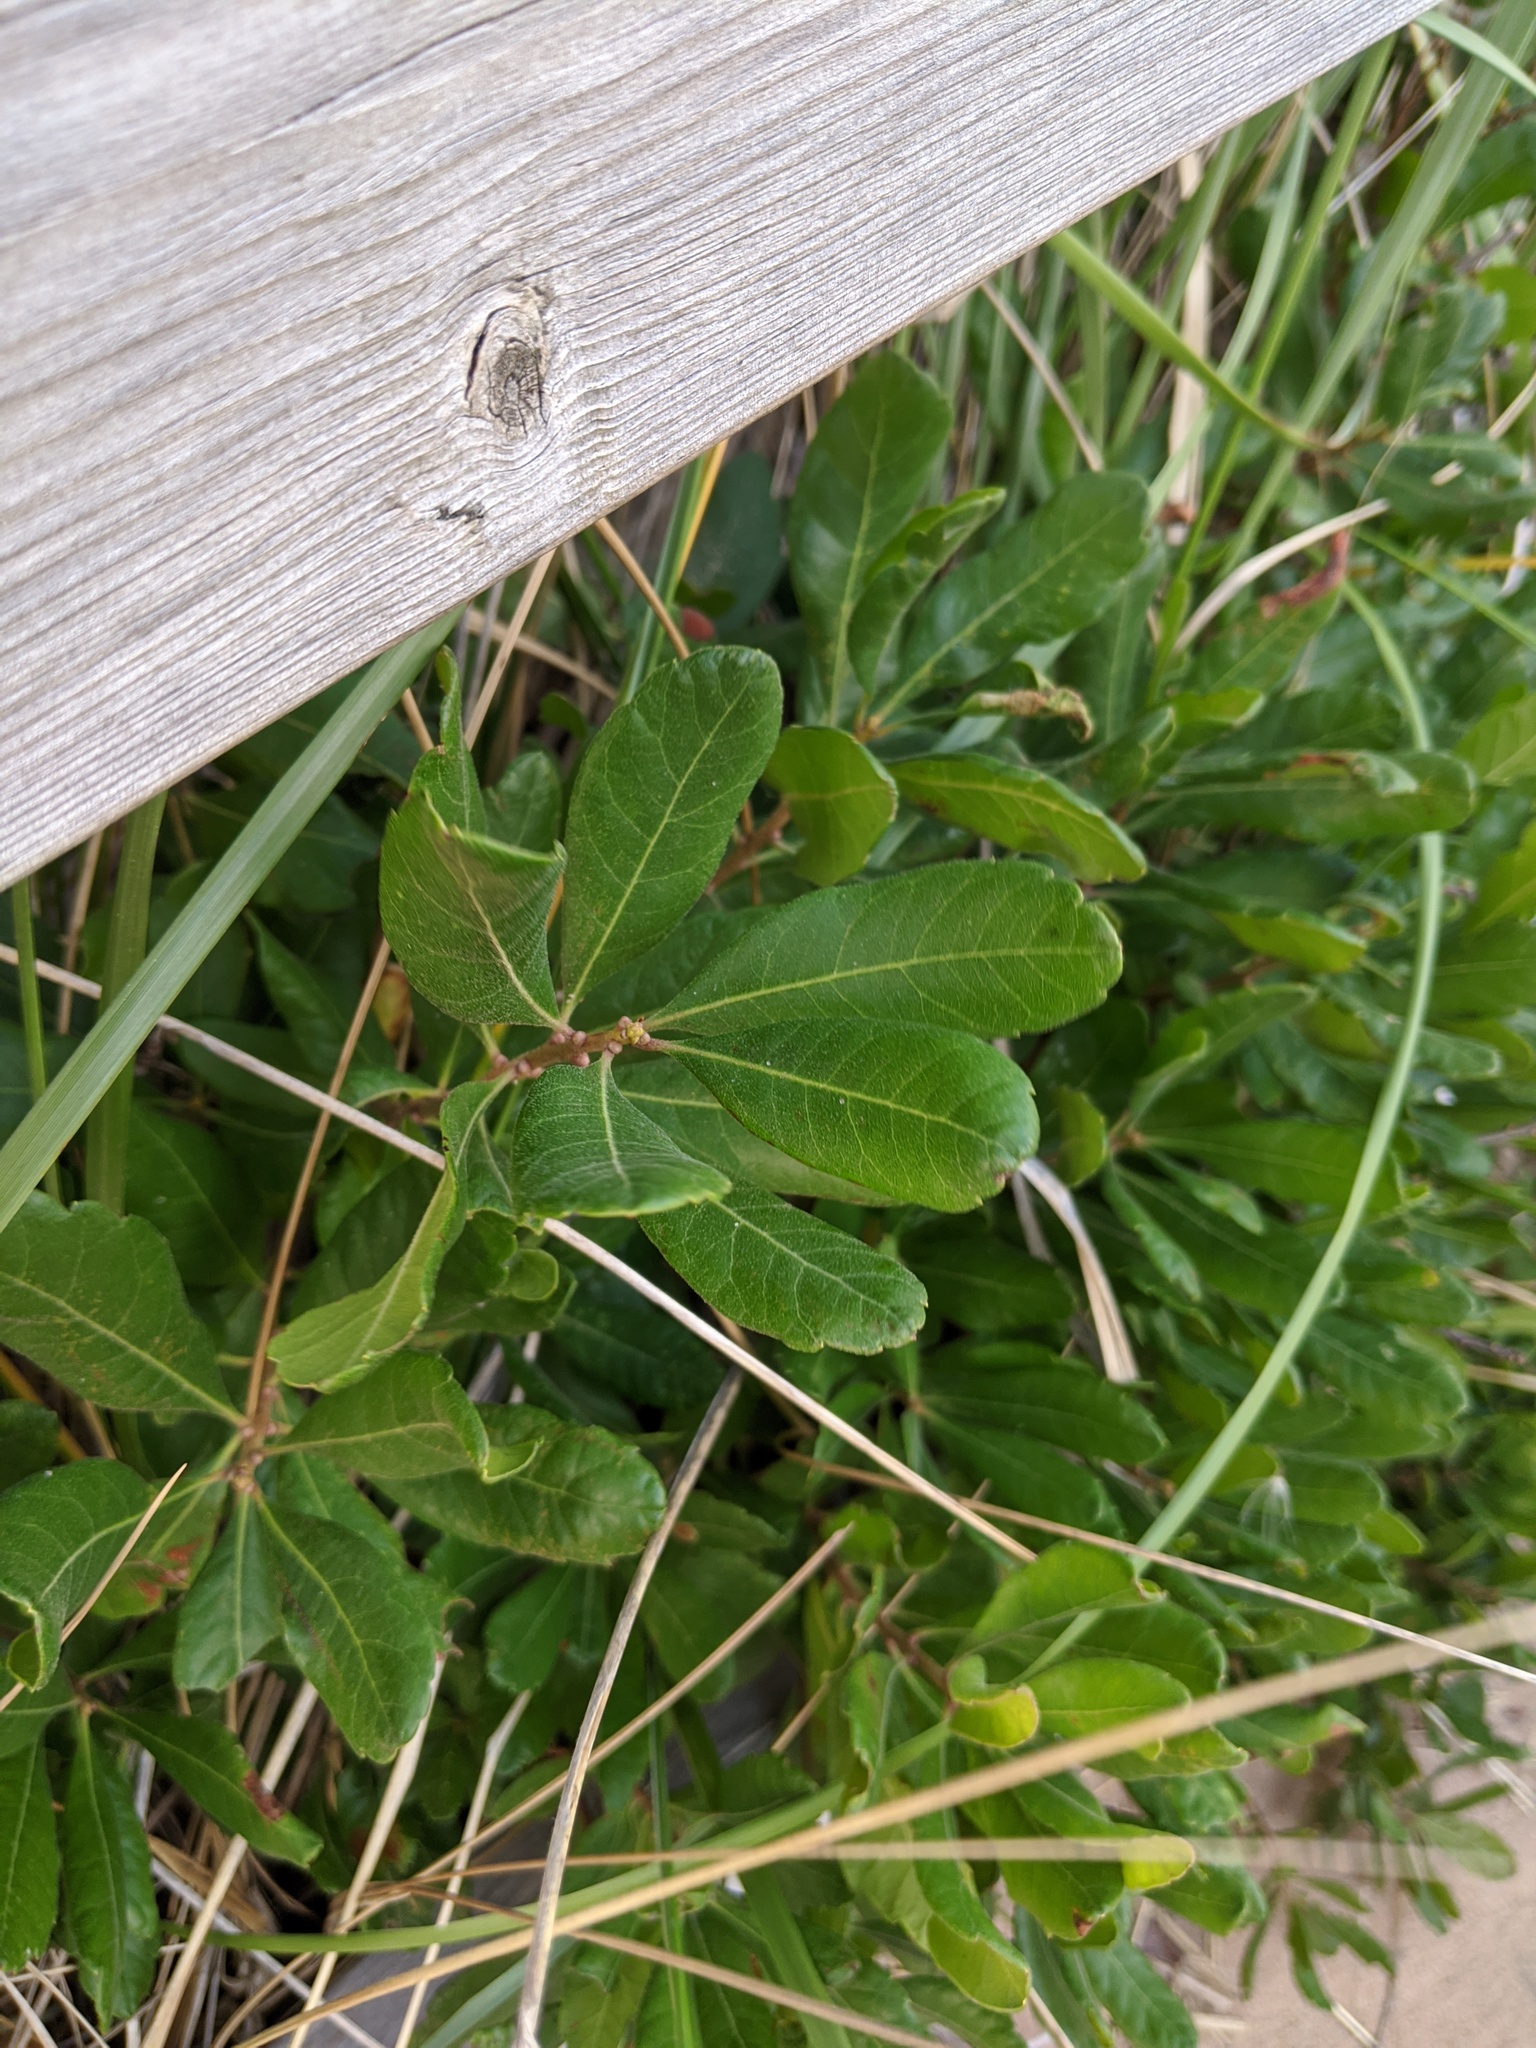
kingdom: Plantae
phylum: Tracheophyta
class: Magnoliopsida
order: Fagales
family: Myricaceae
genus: Morella
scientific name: Morella pensylvanica
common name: Northern bayberry
